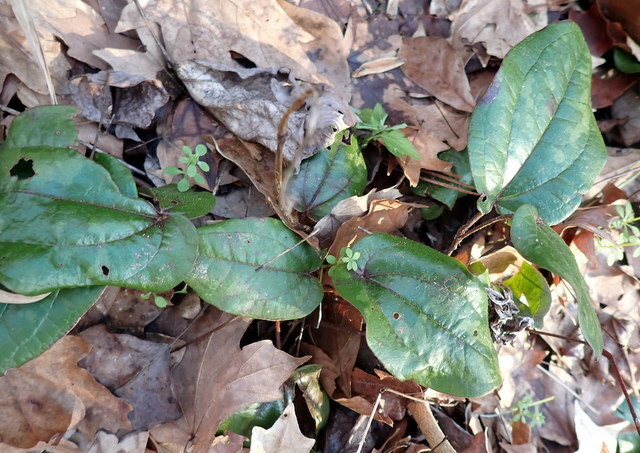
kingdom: Plantae
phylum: Tracheophyta
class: Liliopsida
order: Liliales
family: Smilacaceae
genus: Smilax
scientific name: Smilax pumila
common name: Sarsaparilla-vine
